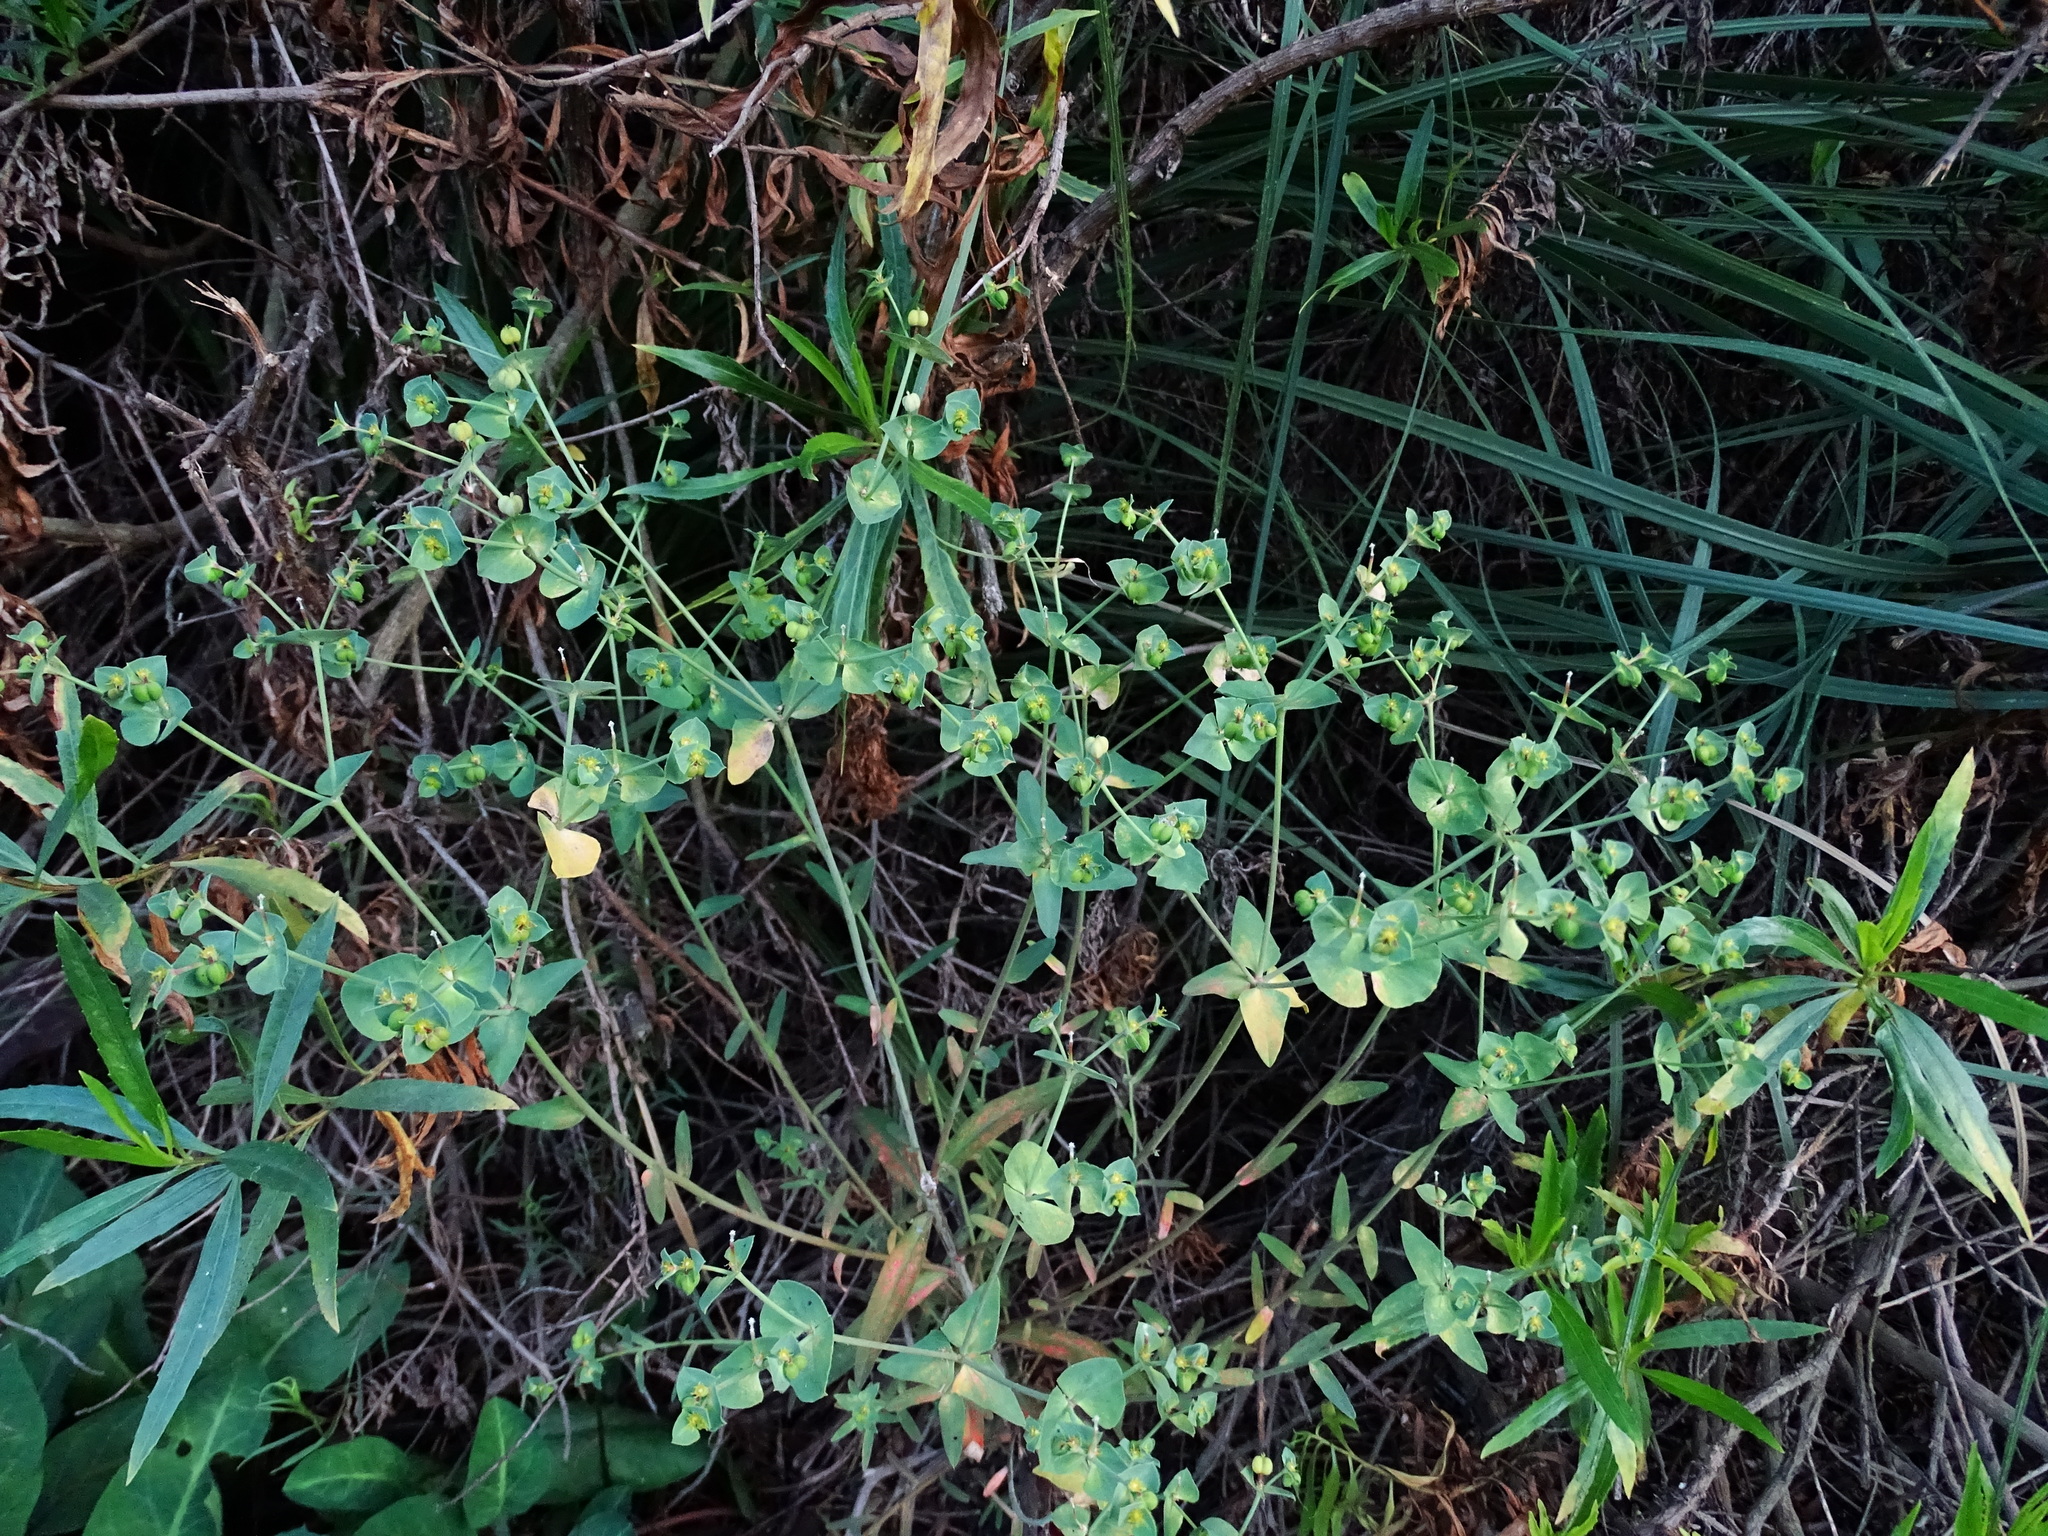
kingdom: Plantae
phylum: Tracheophyta
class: Magnoliopsida
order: Malpighiales
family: Euphorbiaceae
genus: Euphorbia
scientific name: Euphorbia terracina
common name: Geraldton carnation weed
